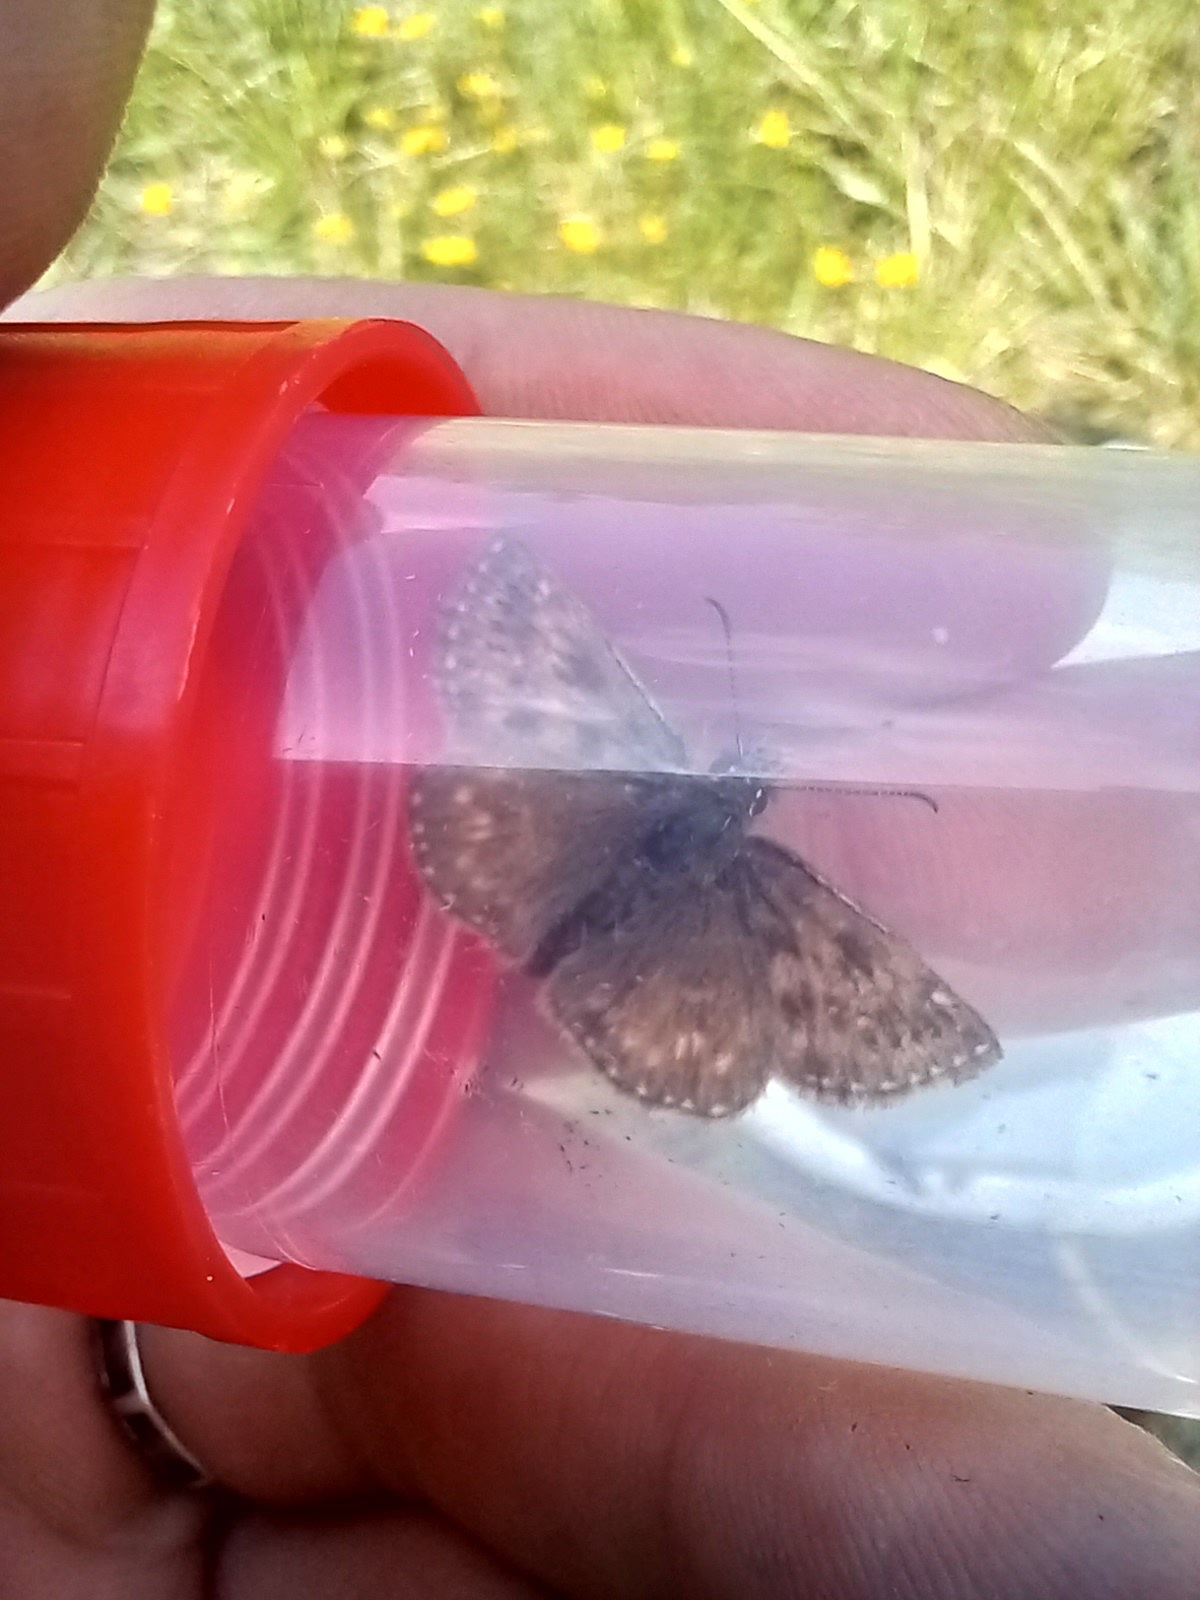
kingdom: Animalia
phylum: Arthropoda
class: Insecta
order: Lepidoptera
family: Hesperiidae
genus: Erynnis
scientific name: Erynnis tages
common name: Dingy skipper
